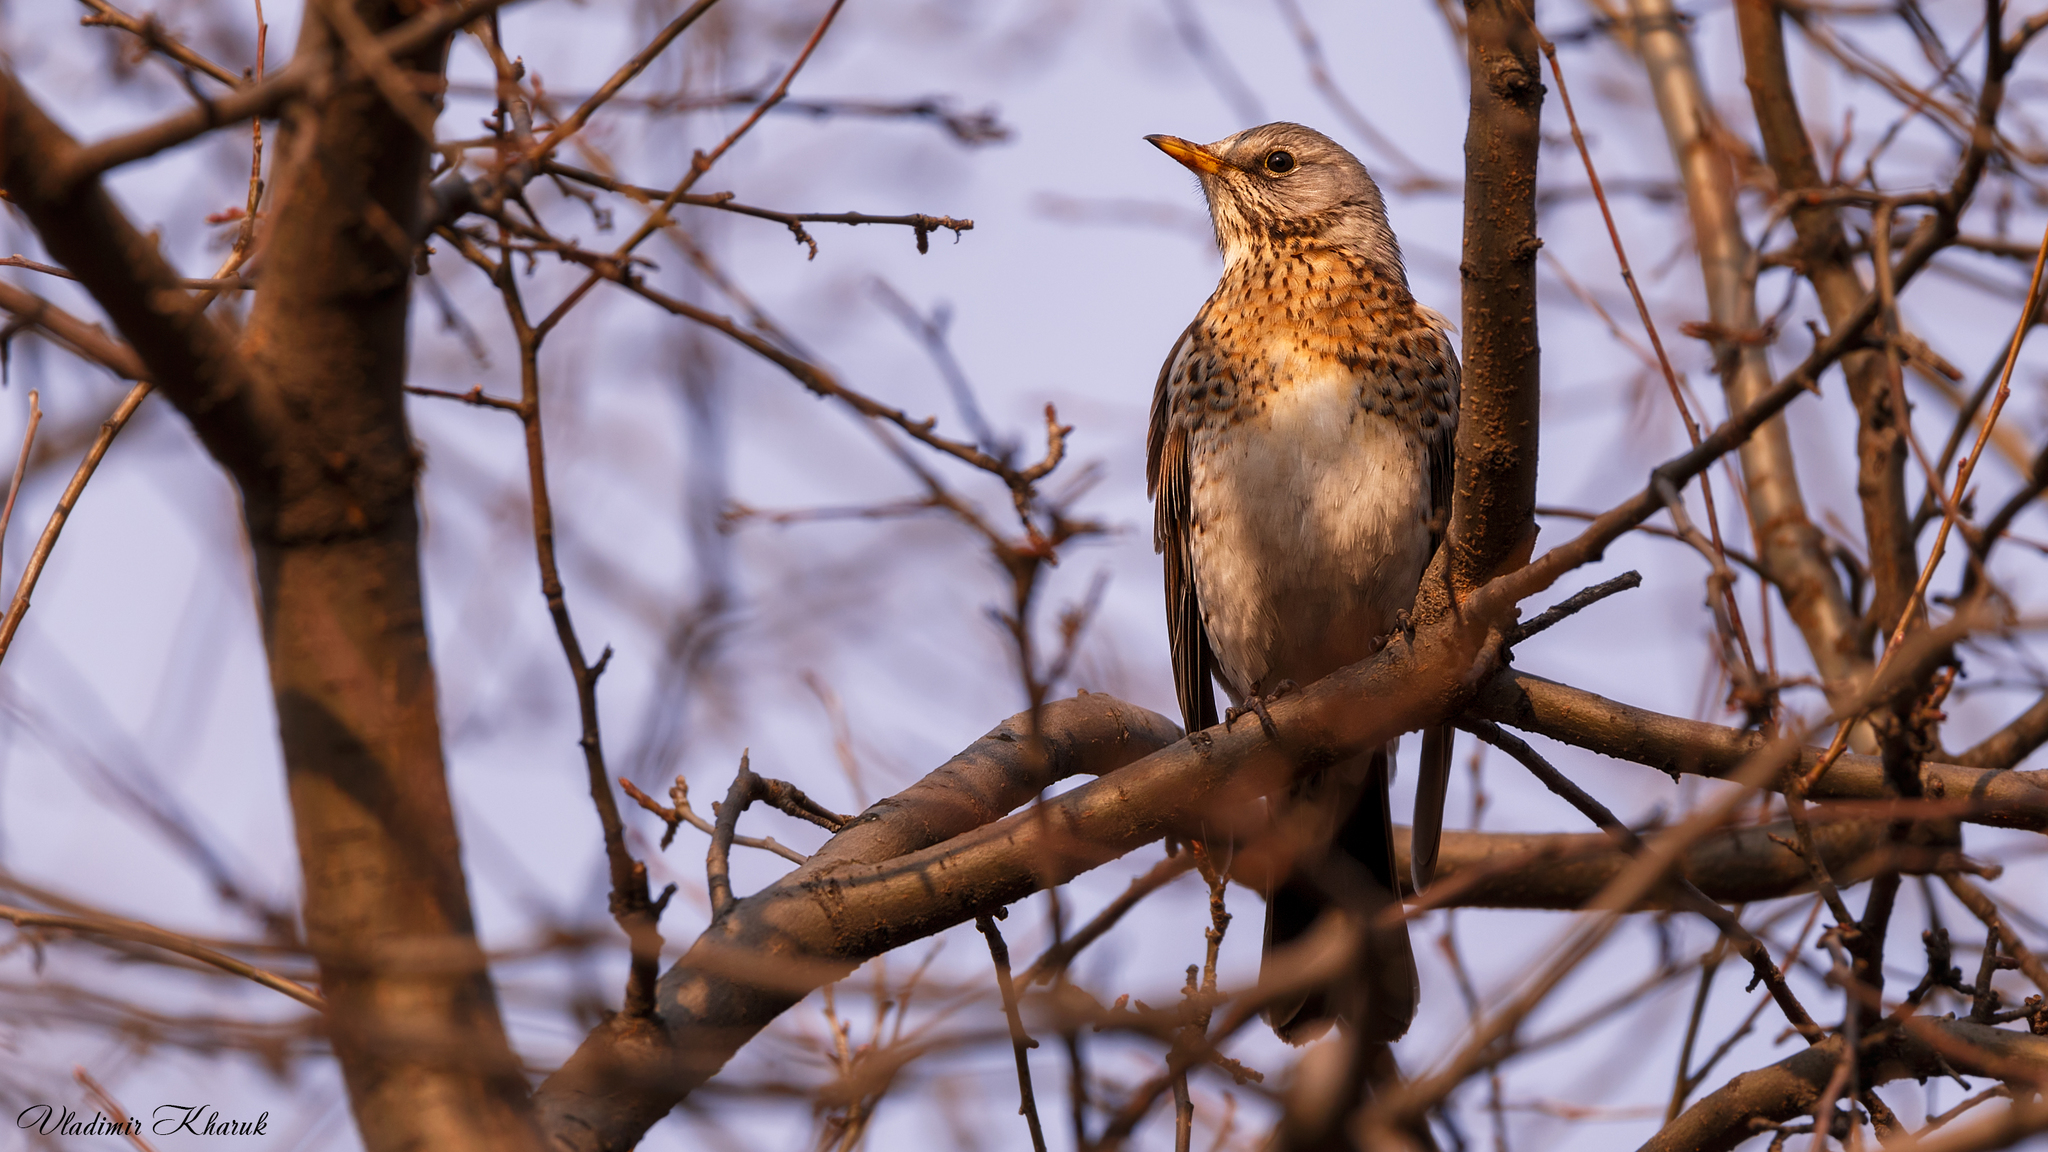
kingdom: Animalia
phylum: Chordata
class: Aves
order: Passeriformes
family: Turdidae
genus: Turdus
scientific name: Turdus pilaris
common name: Fieldfare
